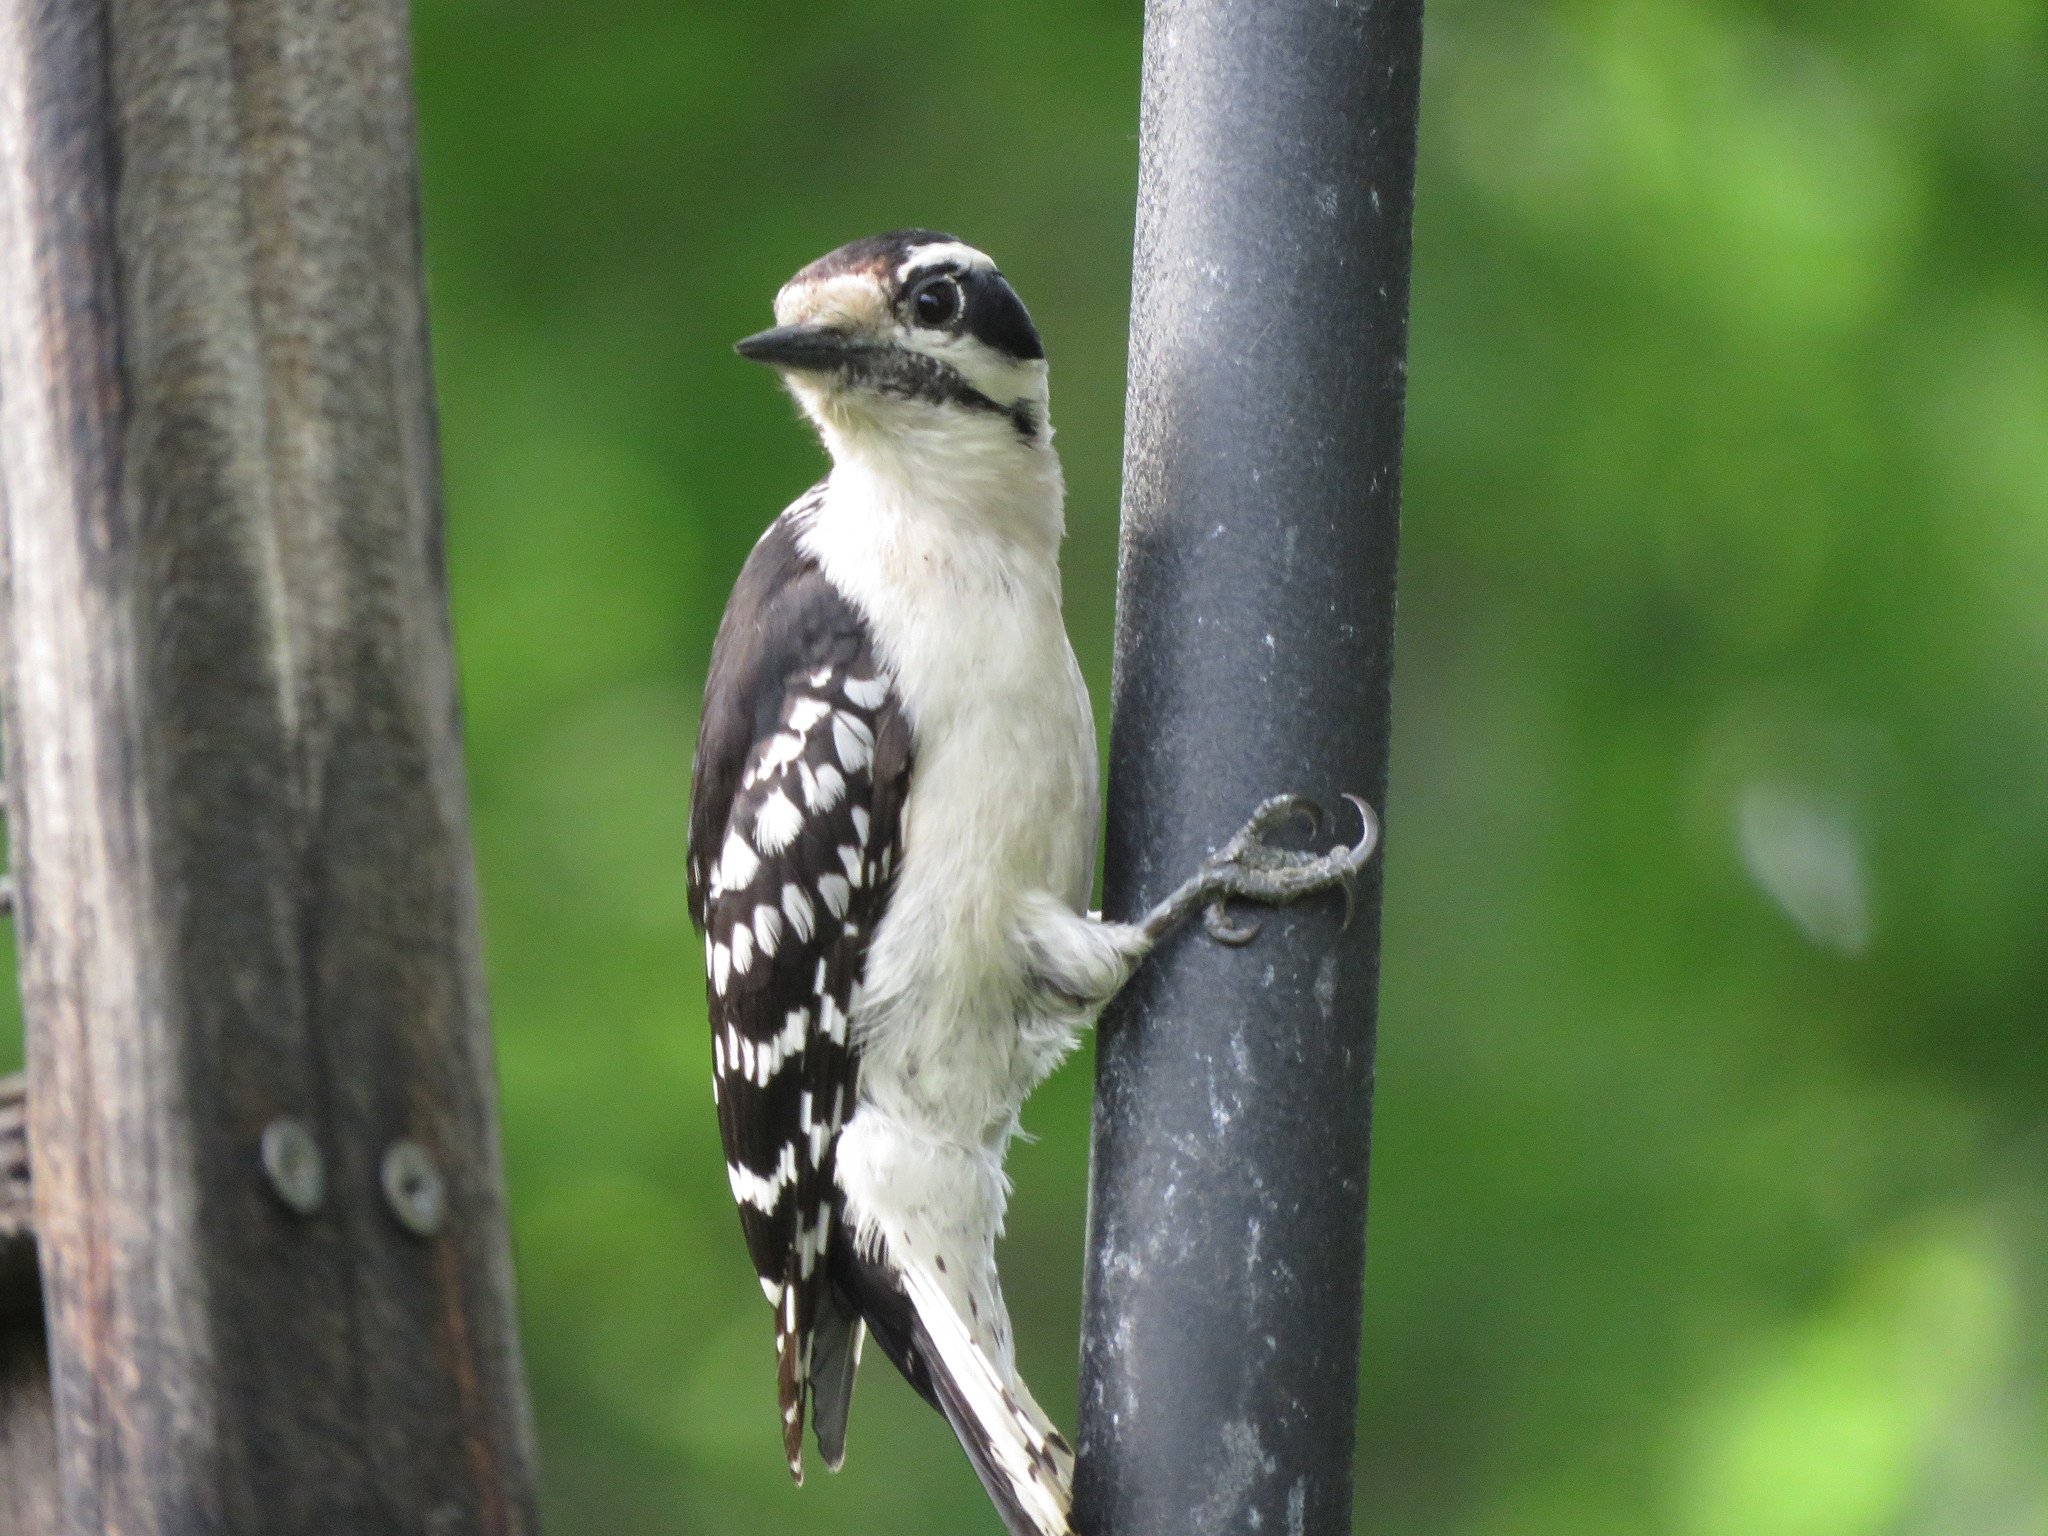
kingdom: Animalia
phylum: Chordata
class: Aves
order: Piciformes
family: Picidae
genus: Dryobates
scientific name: Dryobates pubescens
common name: Downy woodpecker
